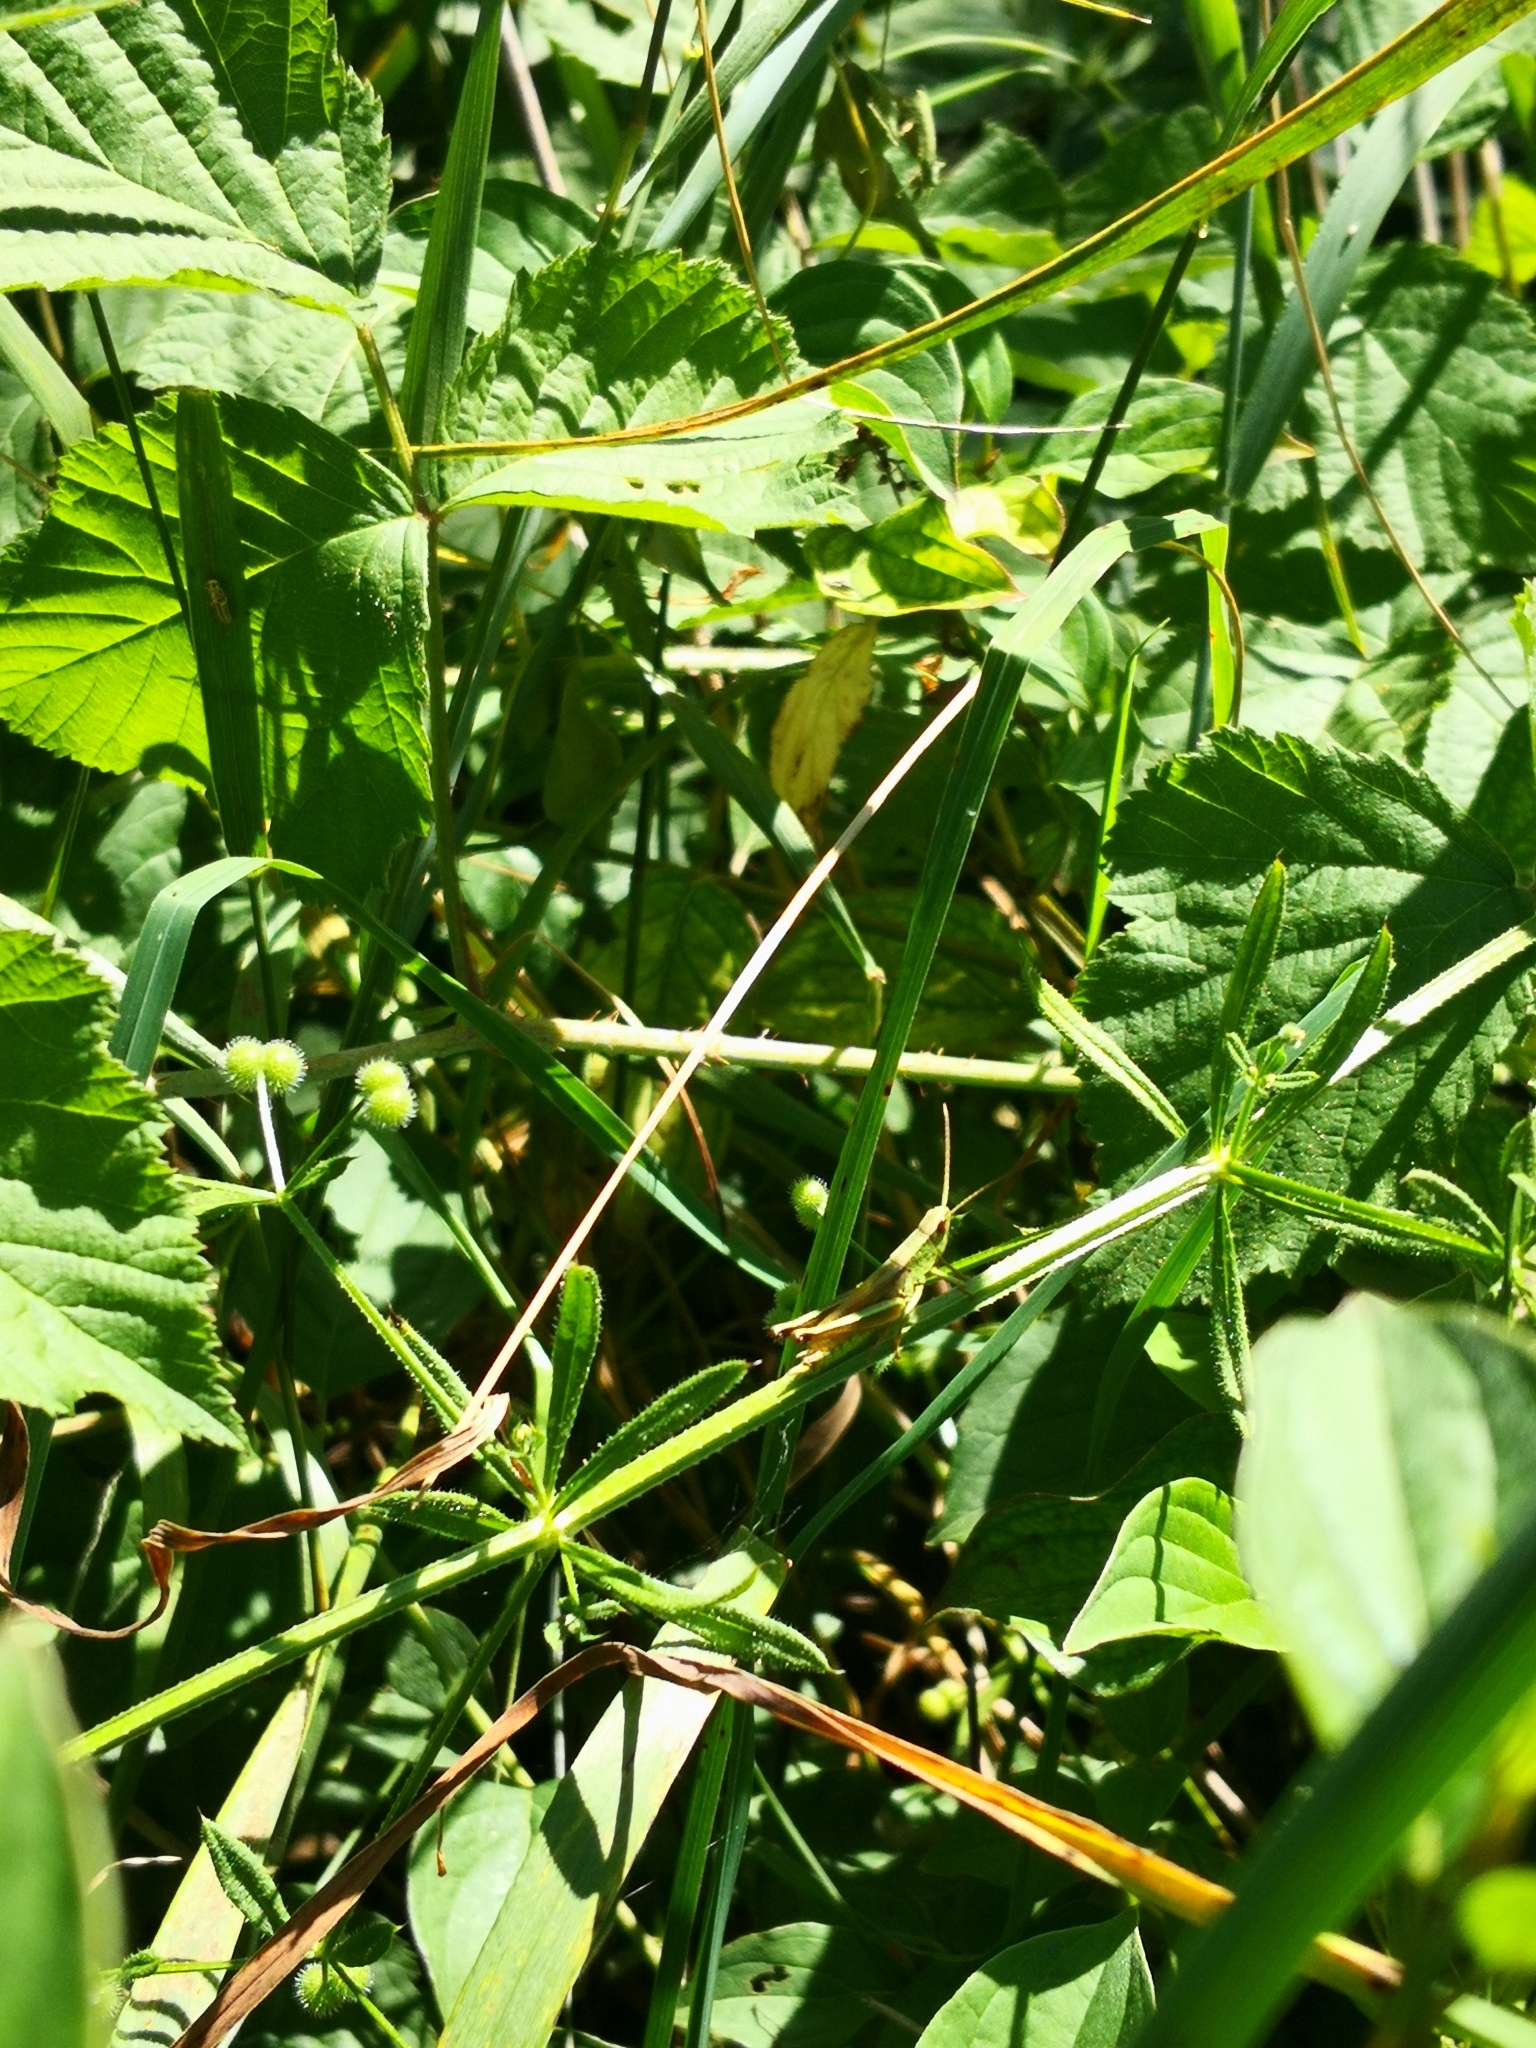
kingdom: Animalia
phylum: Arthropoda
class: Insecta
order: Orthoptera
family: Acrididae
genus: Chrysochraon
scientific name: Chrysochraon dispar
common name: Large gold grasshopper
